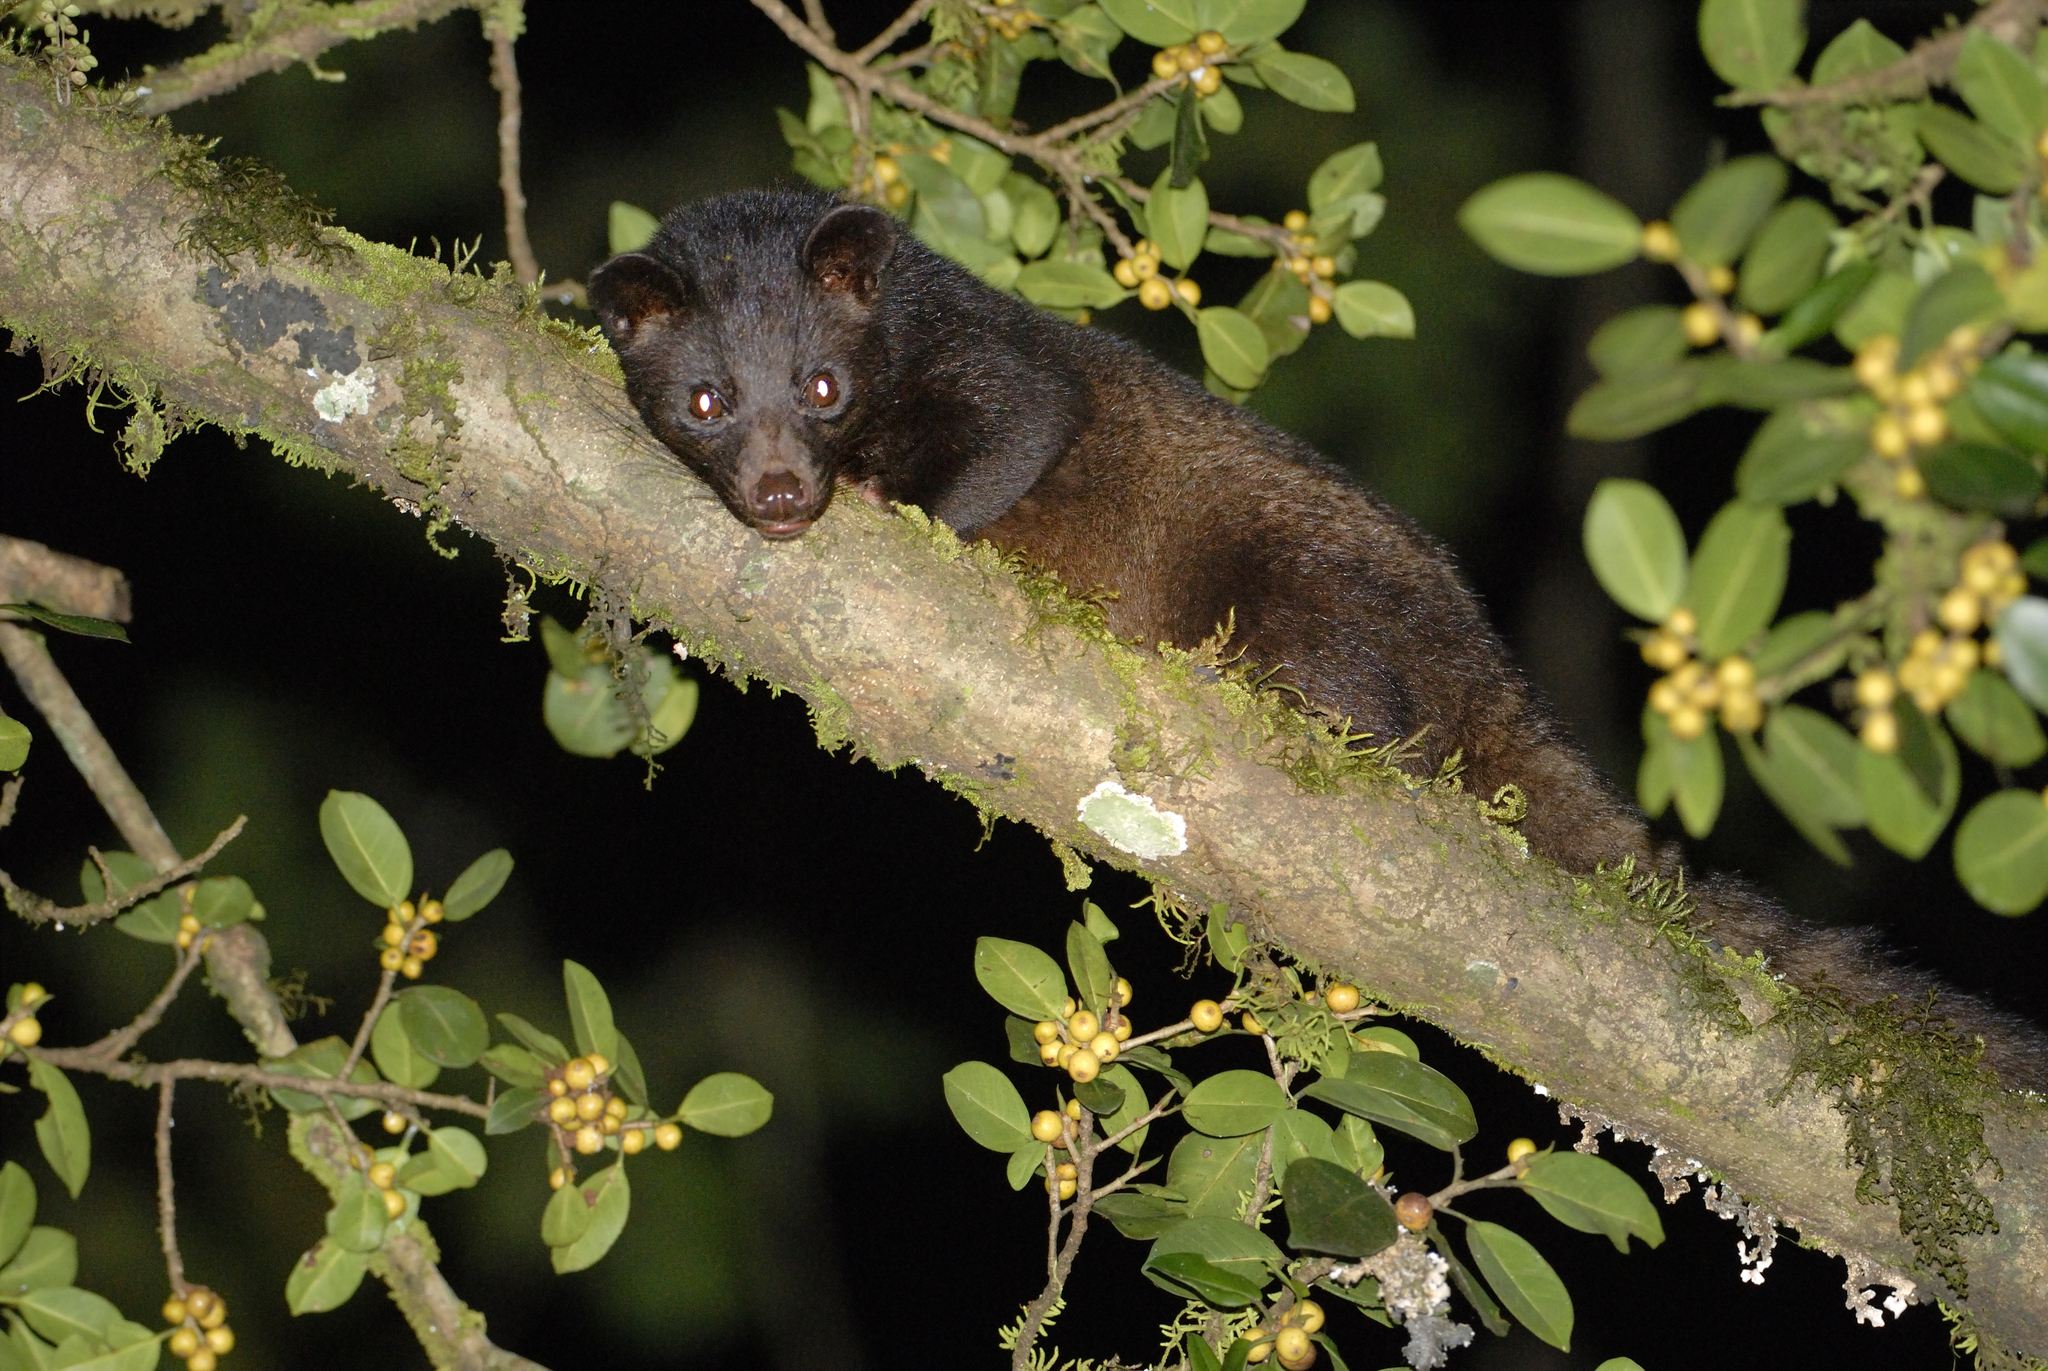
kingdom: Animalia
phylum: Chordata
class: Mammalia
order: Carnivora
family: Viverridae
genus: Paradoxurus
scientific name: Paradoxurus jerdoni
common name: Jerdon's palm civet
